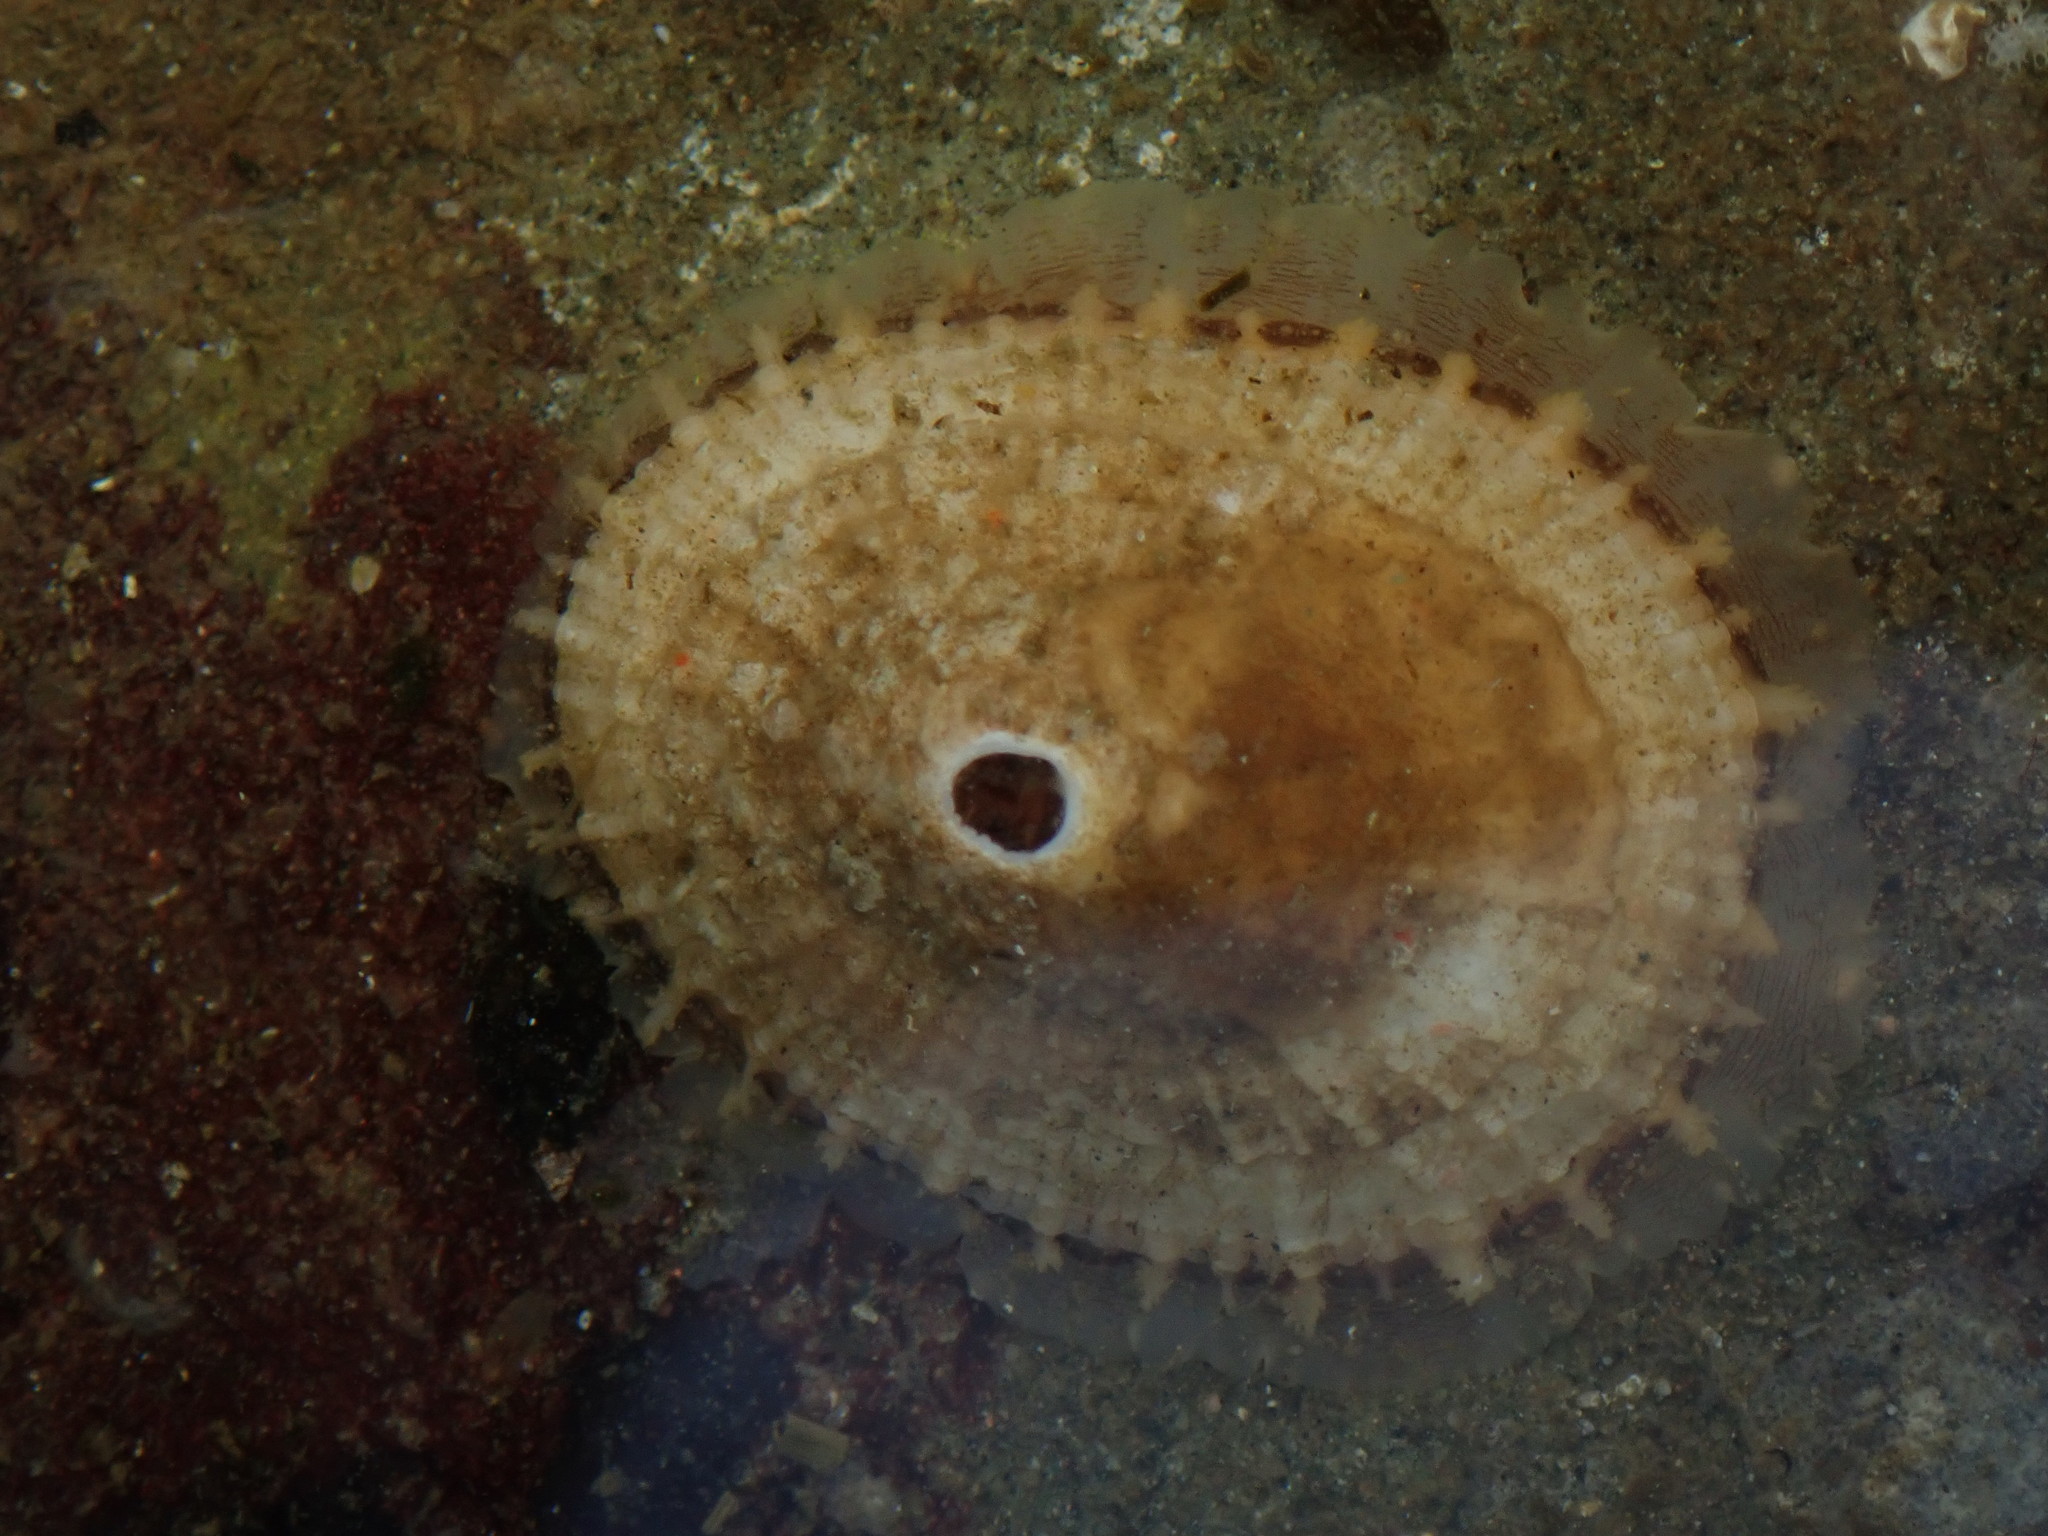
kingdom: Animalia
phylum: Mollusca
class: Gastropoda
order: Lepetellida
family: Fissurellidae
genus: Diodora
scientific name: Diodora aspera
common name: Rough keyhole limpet
